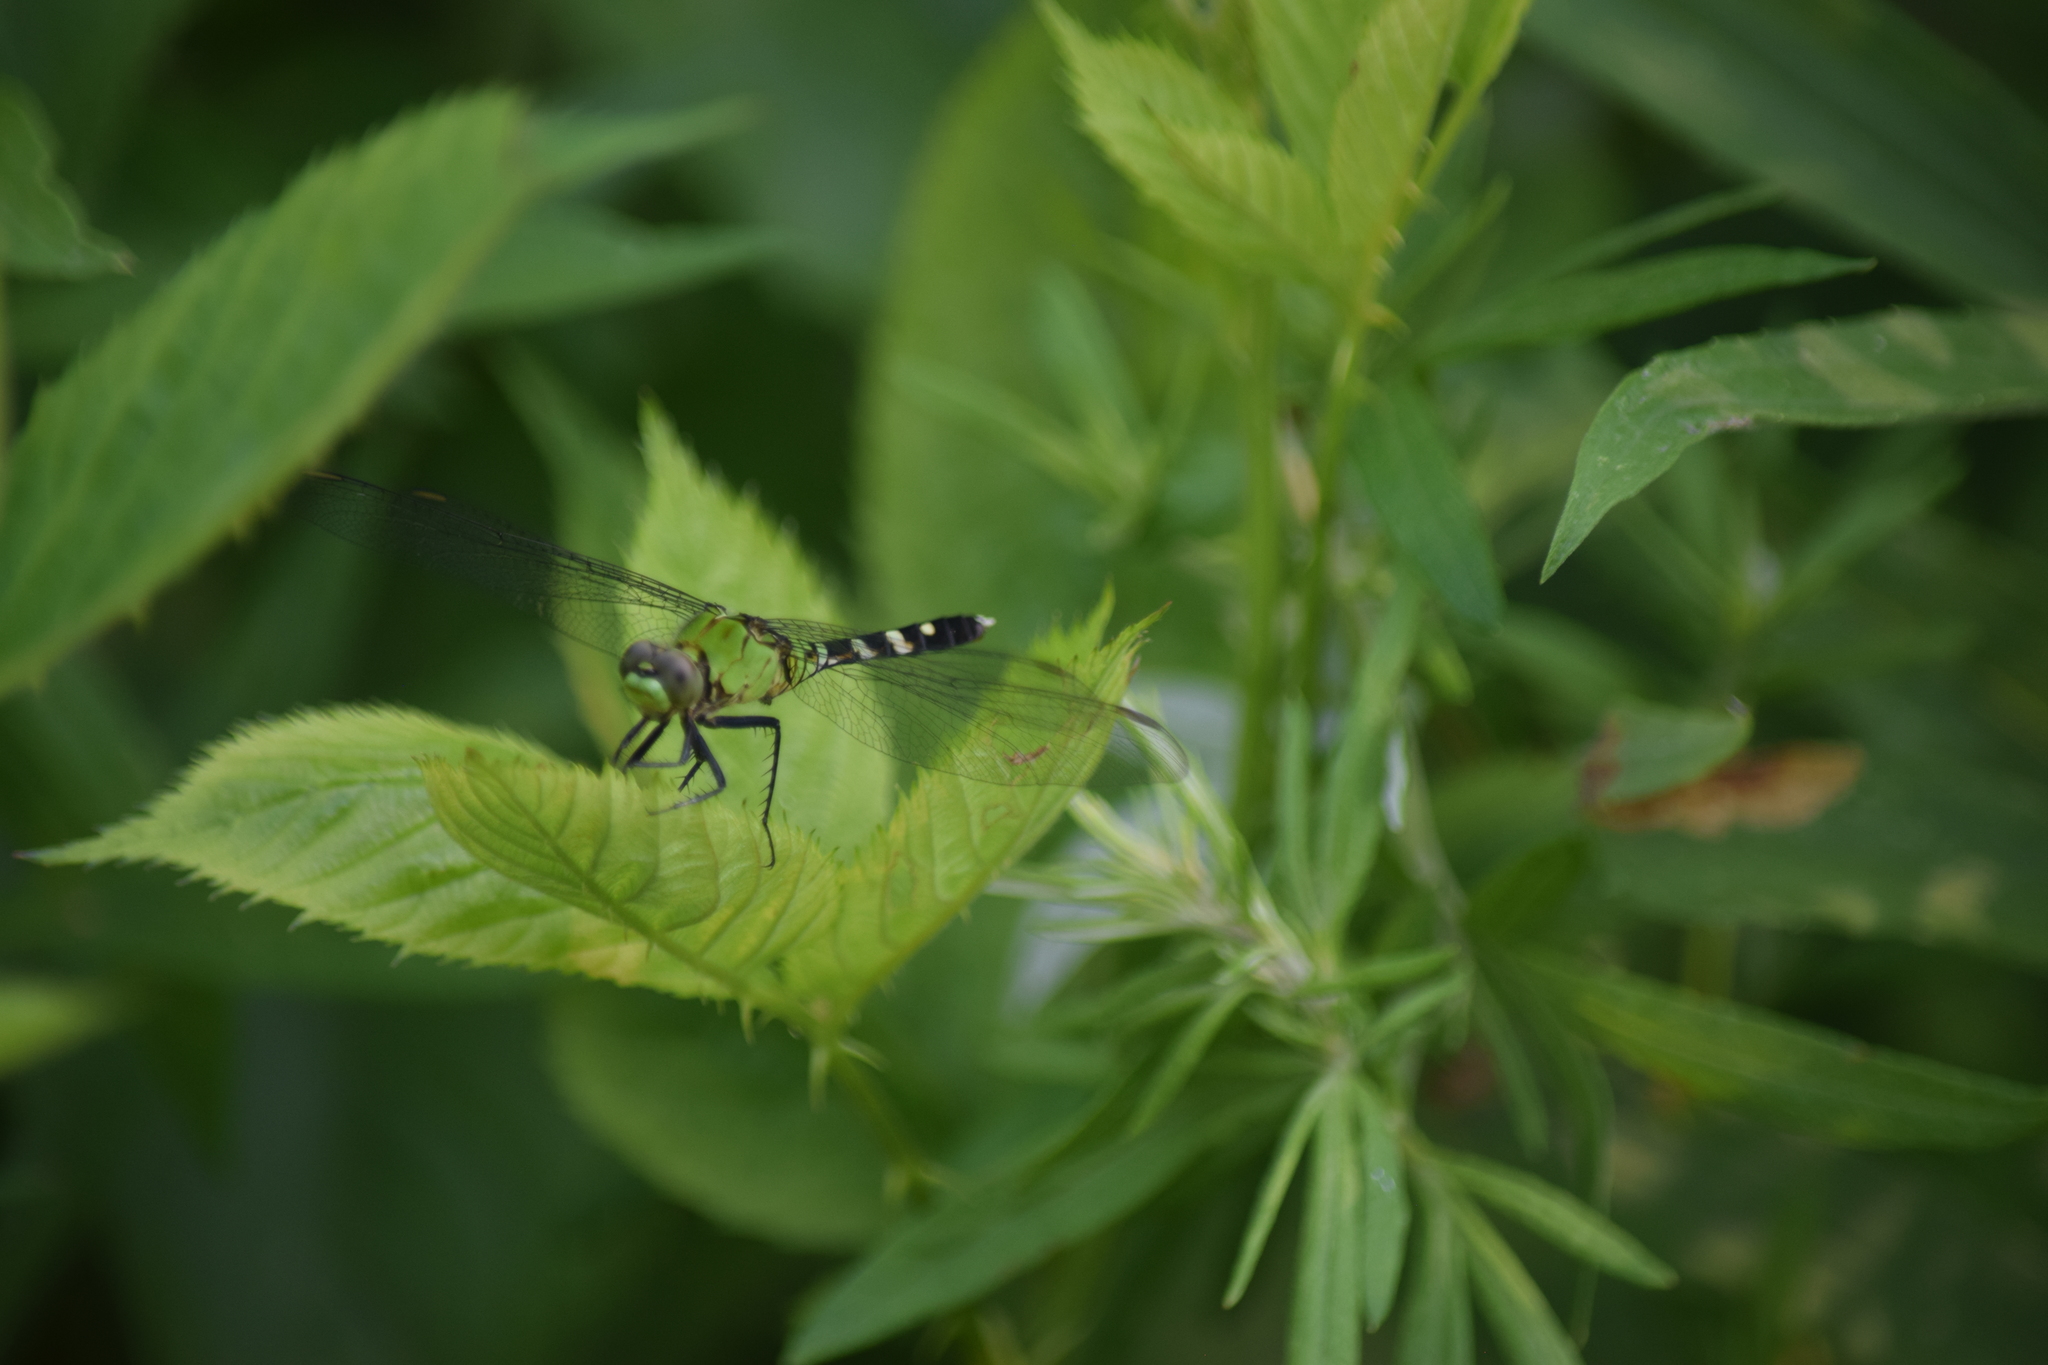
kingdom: Animalia
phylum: Arthropoda
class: Insecta
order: Odonata
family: Libellulidae
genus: Erythemis
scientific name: Erythemis simplicicollis
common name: Eastern pondhawk
